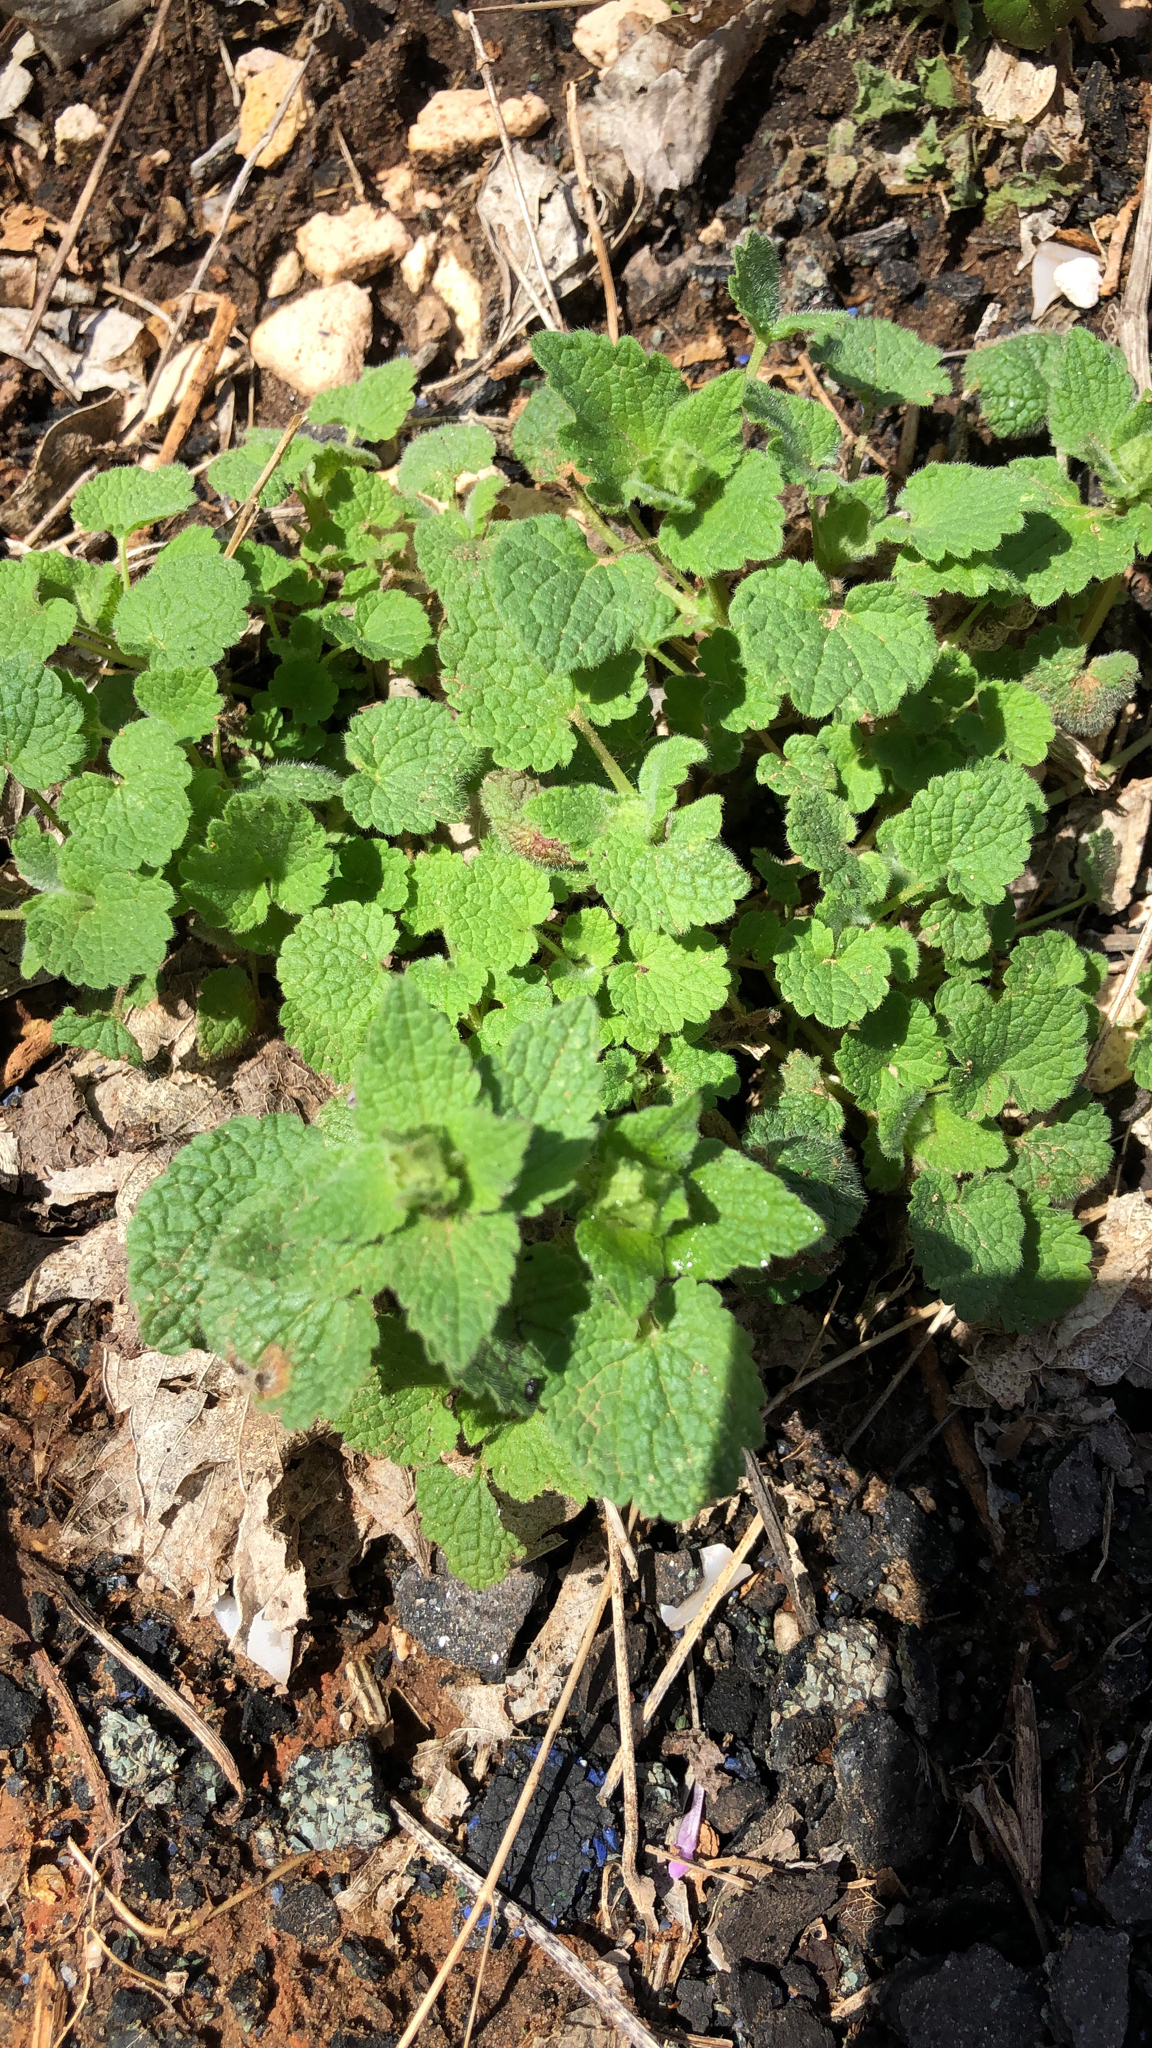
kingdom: Plantae
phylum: Tracheophyta
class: Magnoliopsida
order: Lamiales
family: Lamiaceae
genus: Lamium
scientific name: Lamium purpureum
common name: Red dead-nettle
